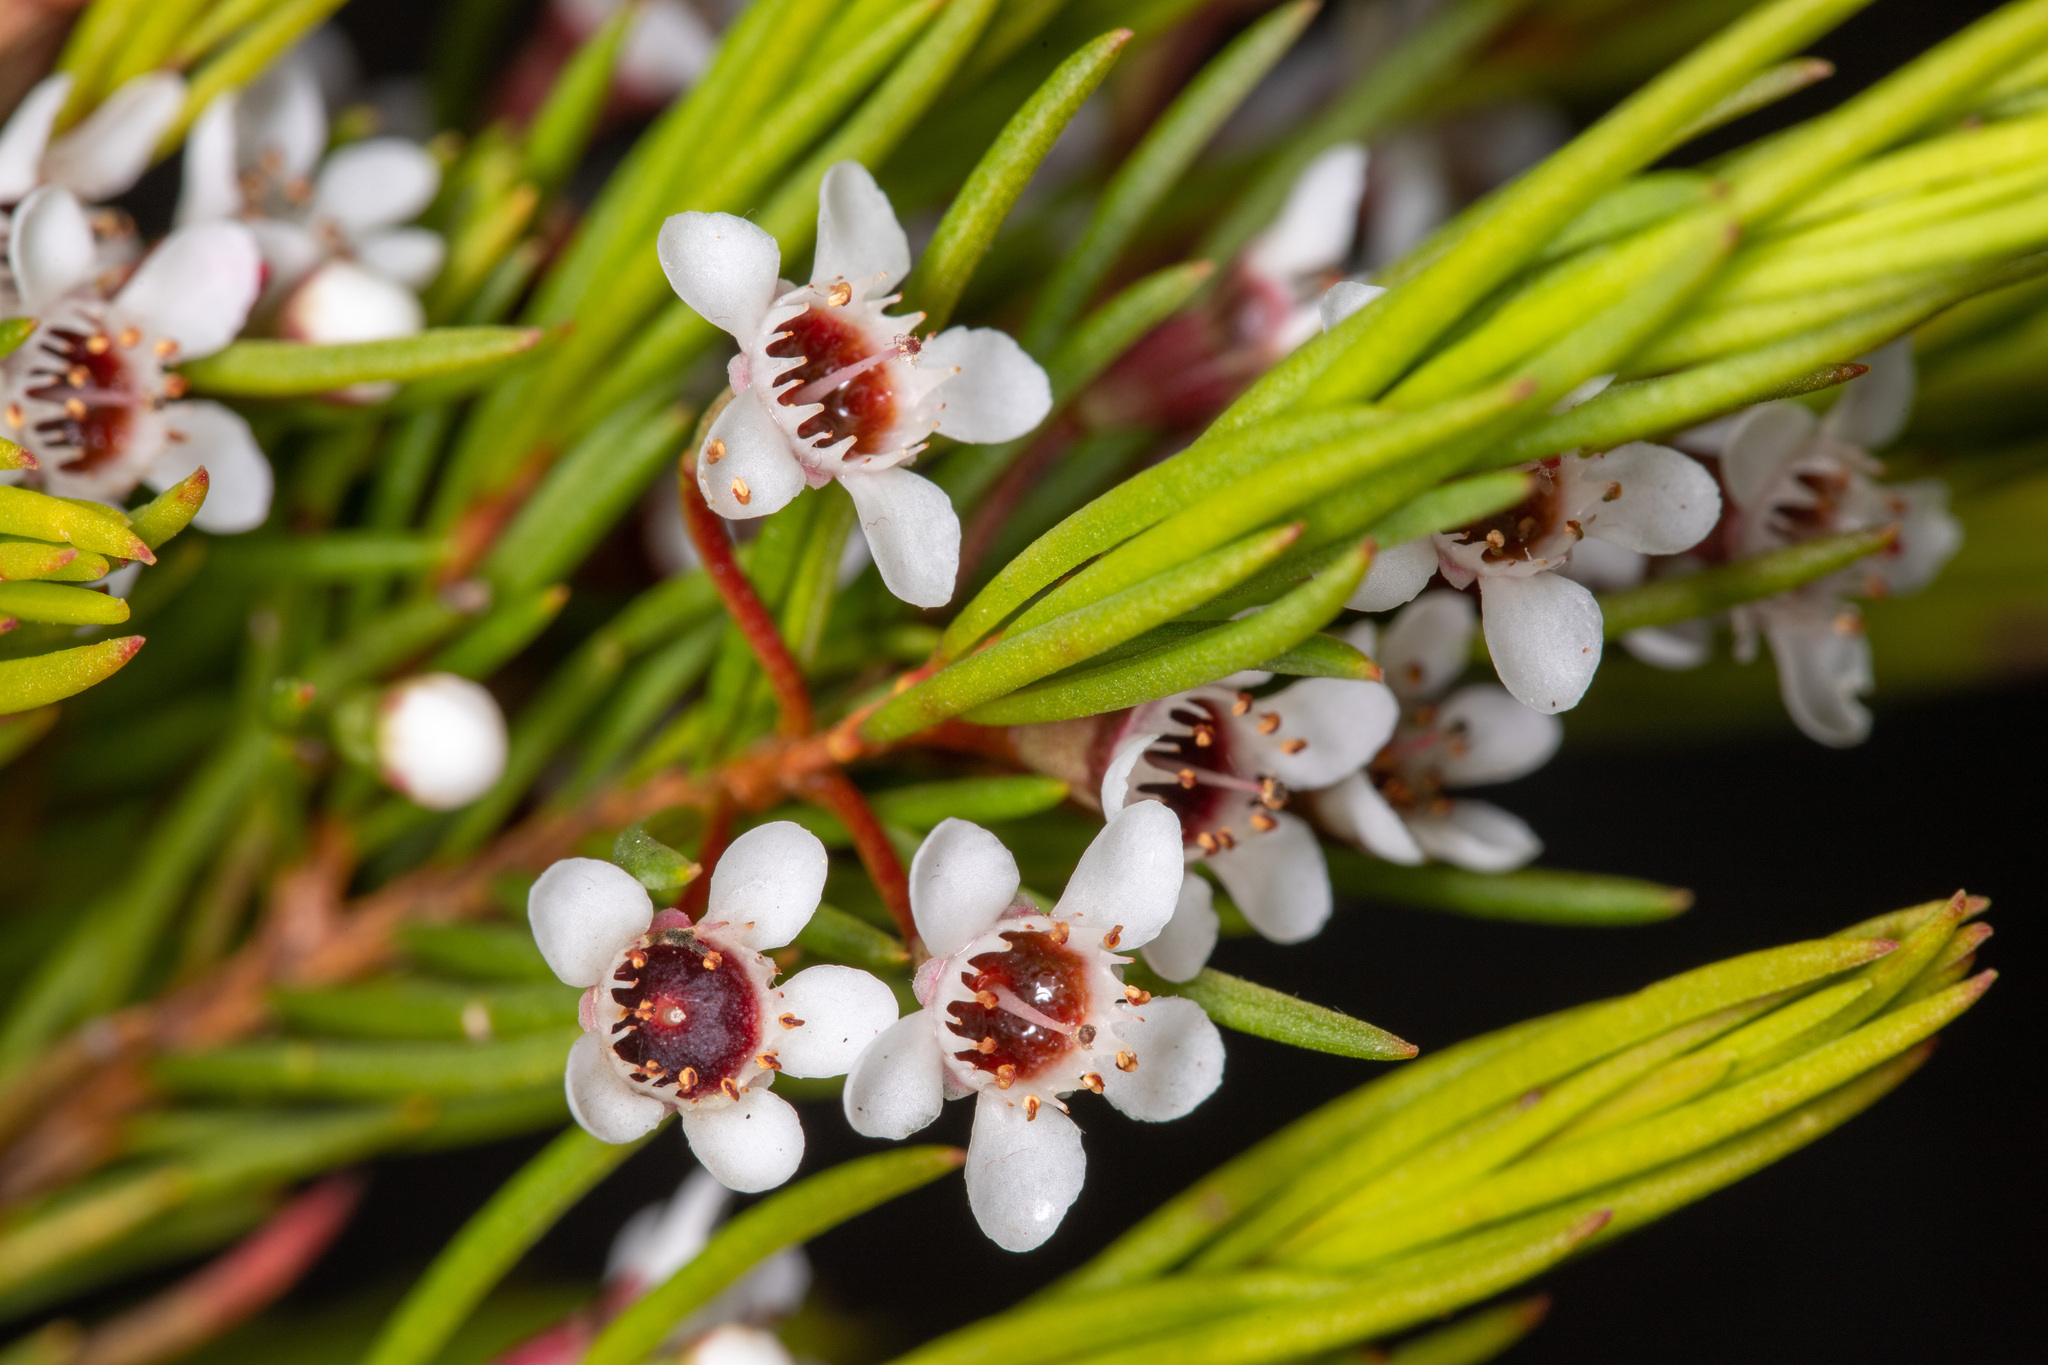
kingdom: Plantae
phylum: Tracheophyta
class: Magnoliopsida
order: Myrtales
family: Myrtaceae
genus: Chamelaucium
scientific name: Chamelaucium floriferum
